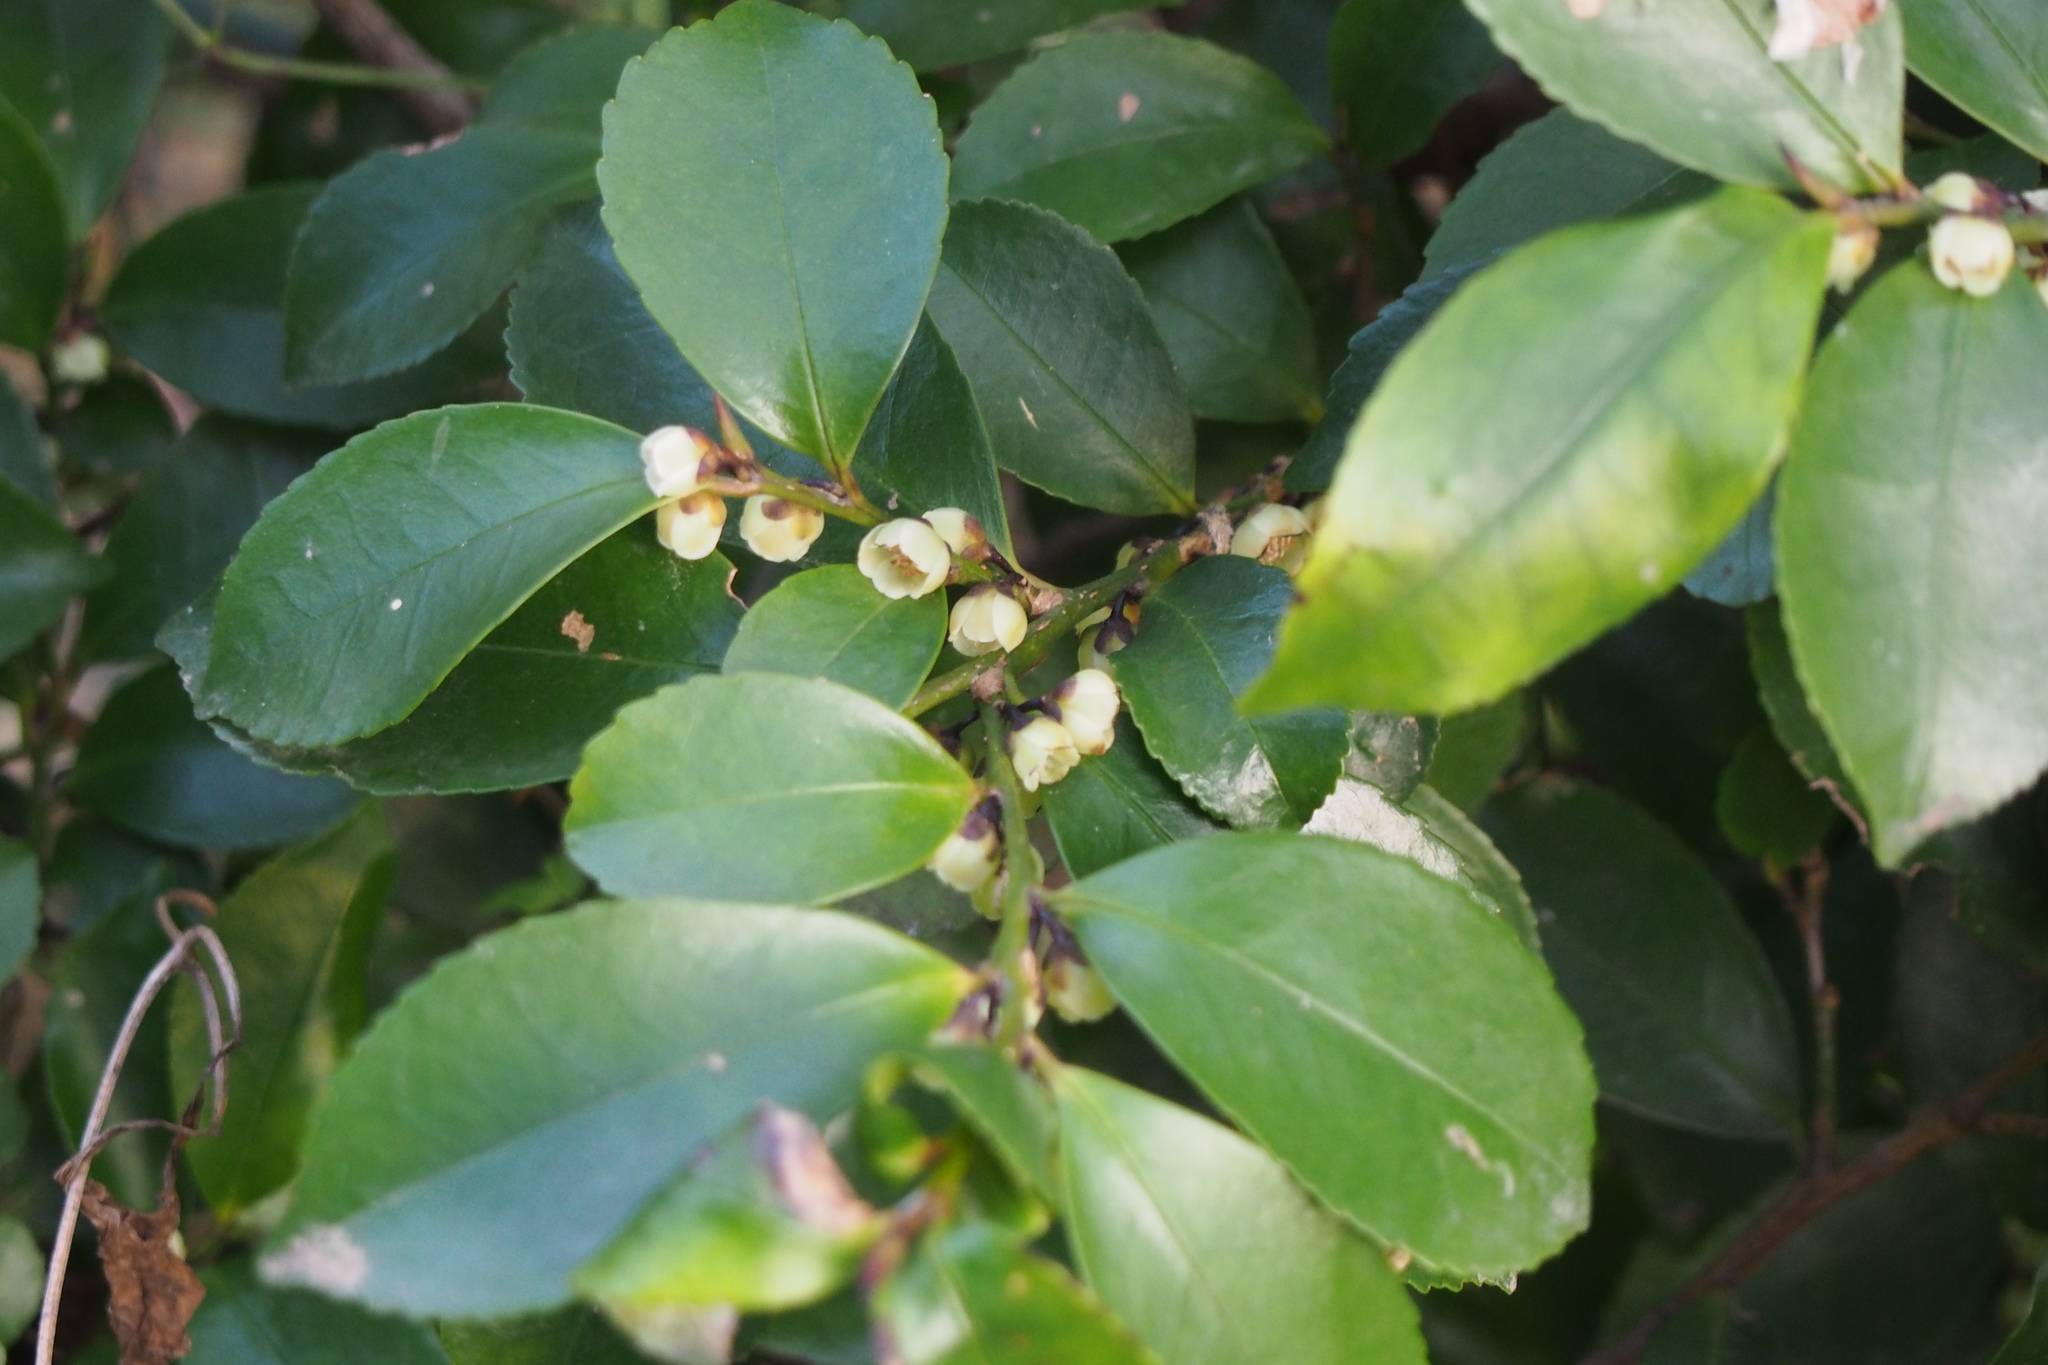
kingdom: Plantae
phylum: Tracheophyta
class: Magnoliopsida
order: Ericales
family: Pentaphylacaceae
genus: Eurya
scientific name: Eurya japonica
